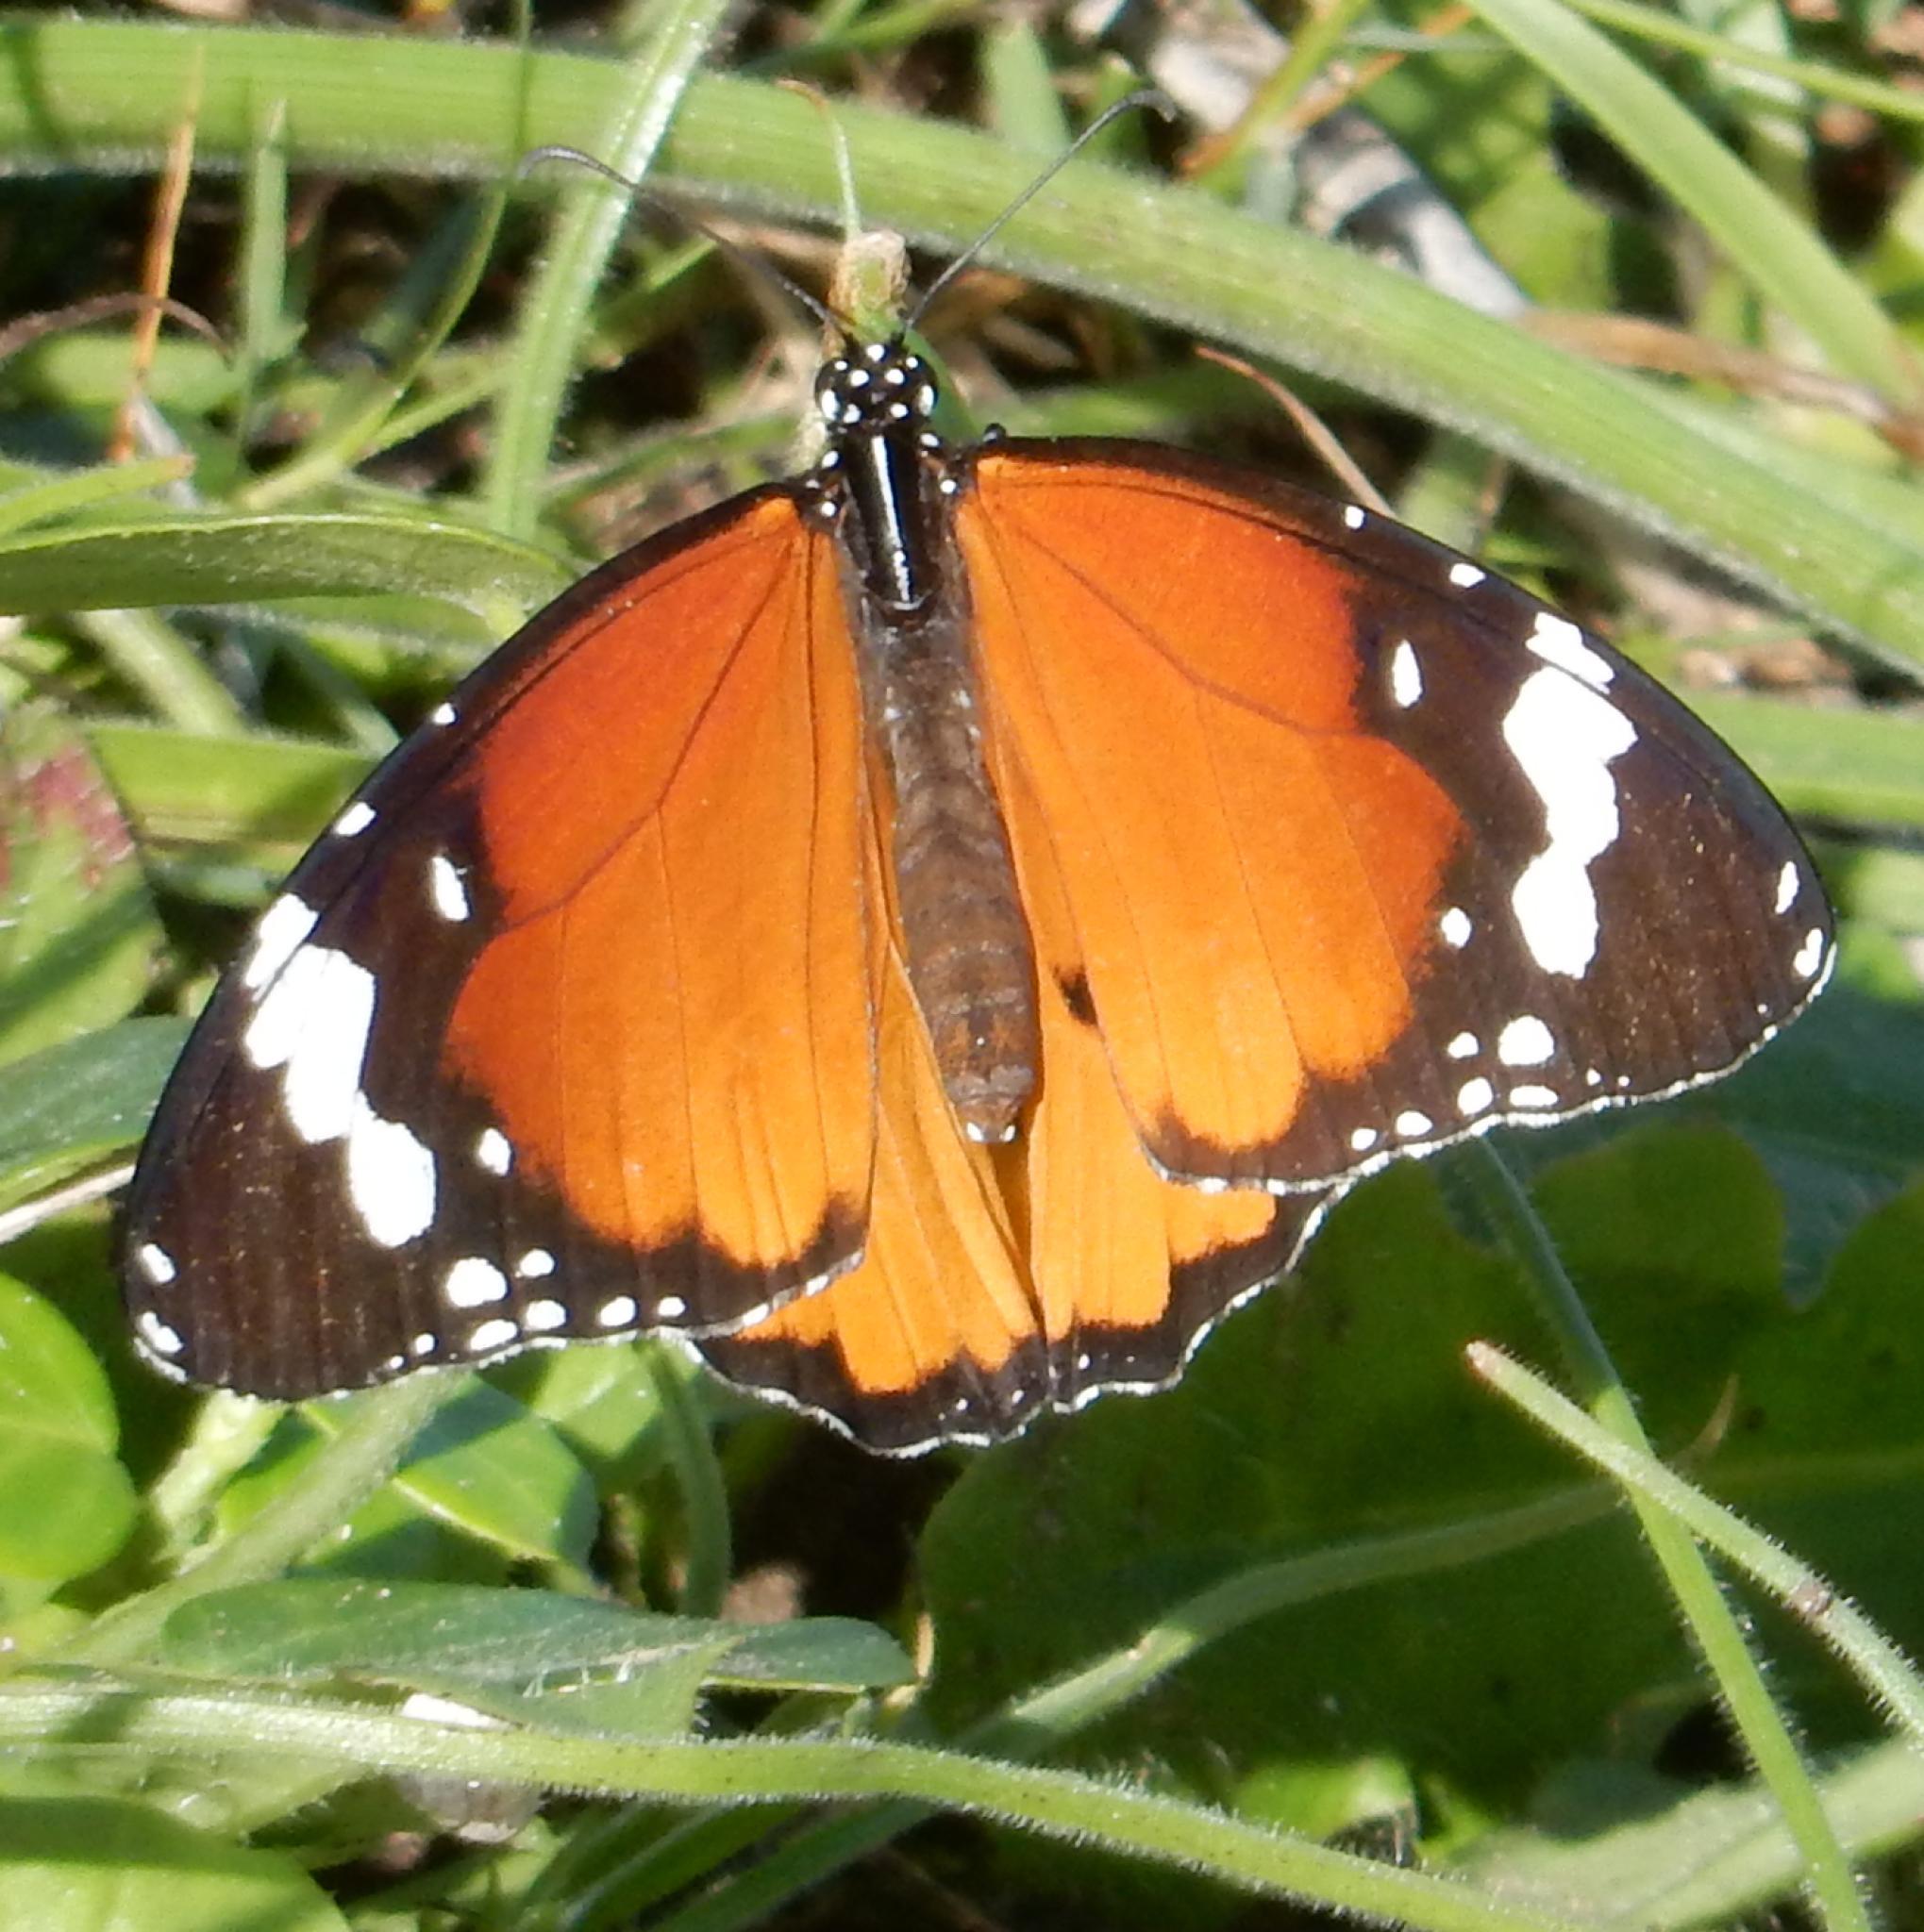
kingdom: Animalia
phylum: Arthropoda
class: Insecta
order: Lepidoptera
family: Nymphalidae
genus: Danaus
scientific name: Danaus chrysippus
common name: Plain tiger
